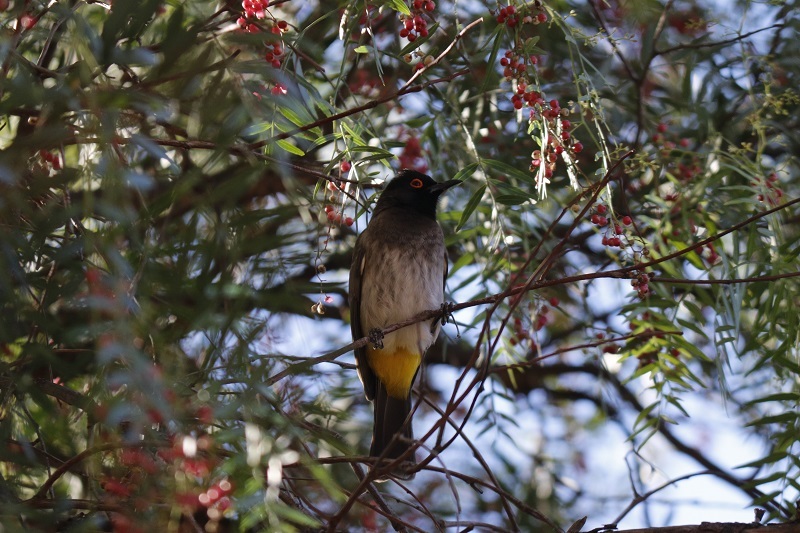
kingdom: Animalia
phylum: Chordata
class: Aves
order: Passeriformes
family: Pycnonotidae
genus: Pycnonotus
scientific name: Pycnonotus nigricans
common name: African red-eyed bulbul
